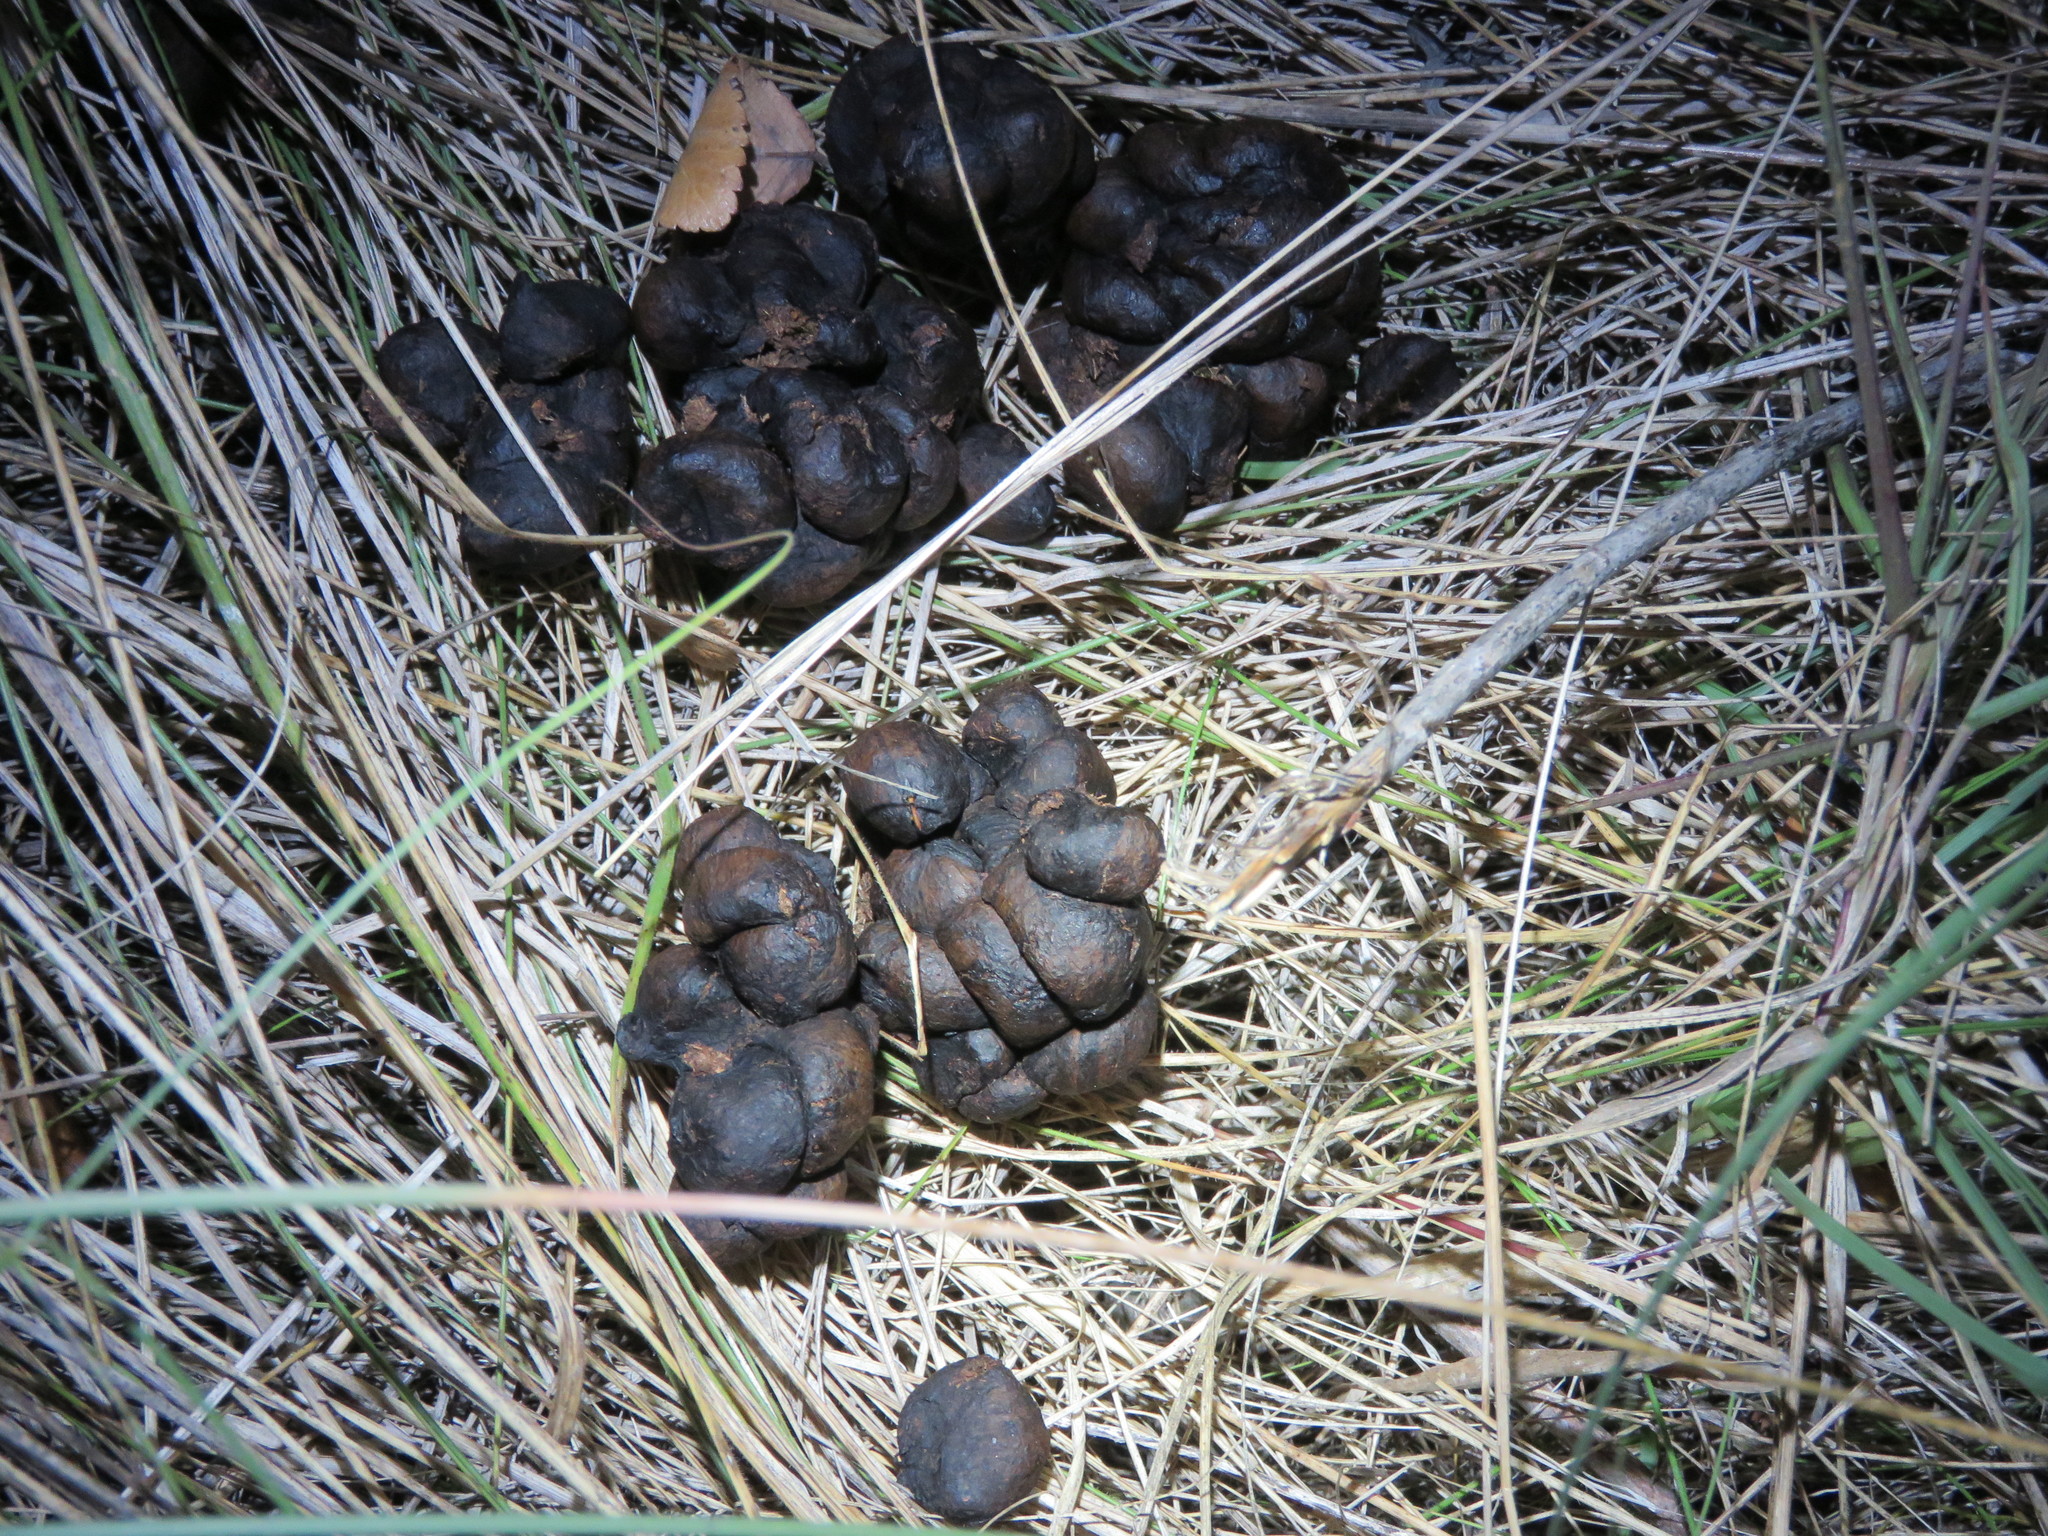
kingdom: Animalia
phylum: Chordata
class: Mammalia
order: Artiodactyla
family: Cervidae
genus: Odocoileus
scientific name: Odocoileus virginianus
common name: White-tailed deer
